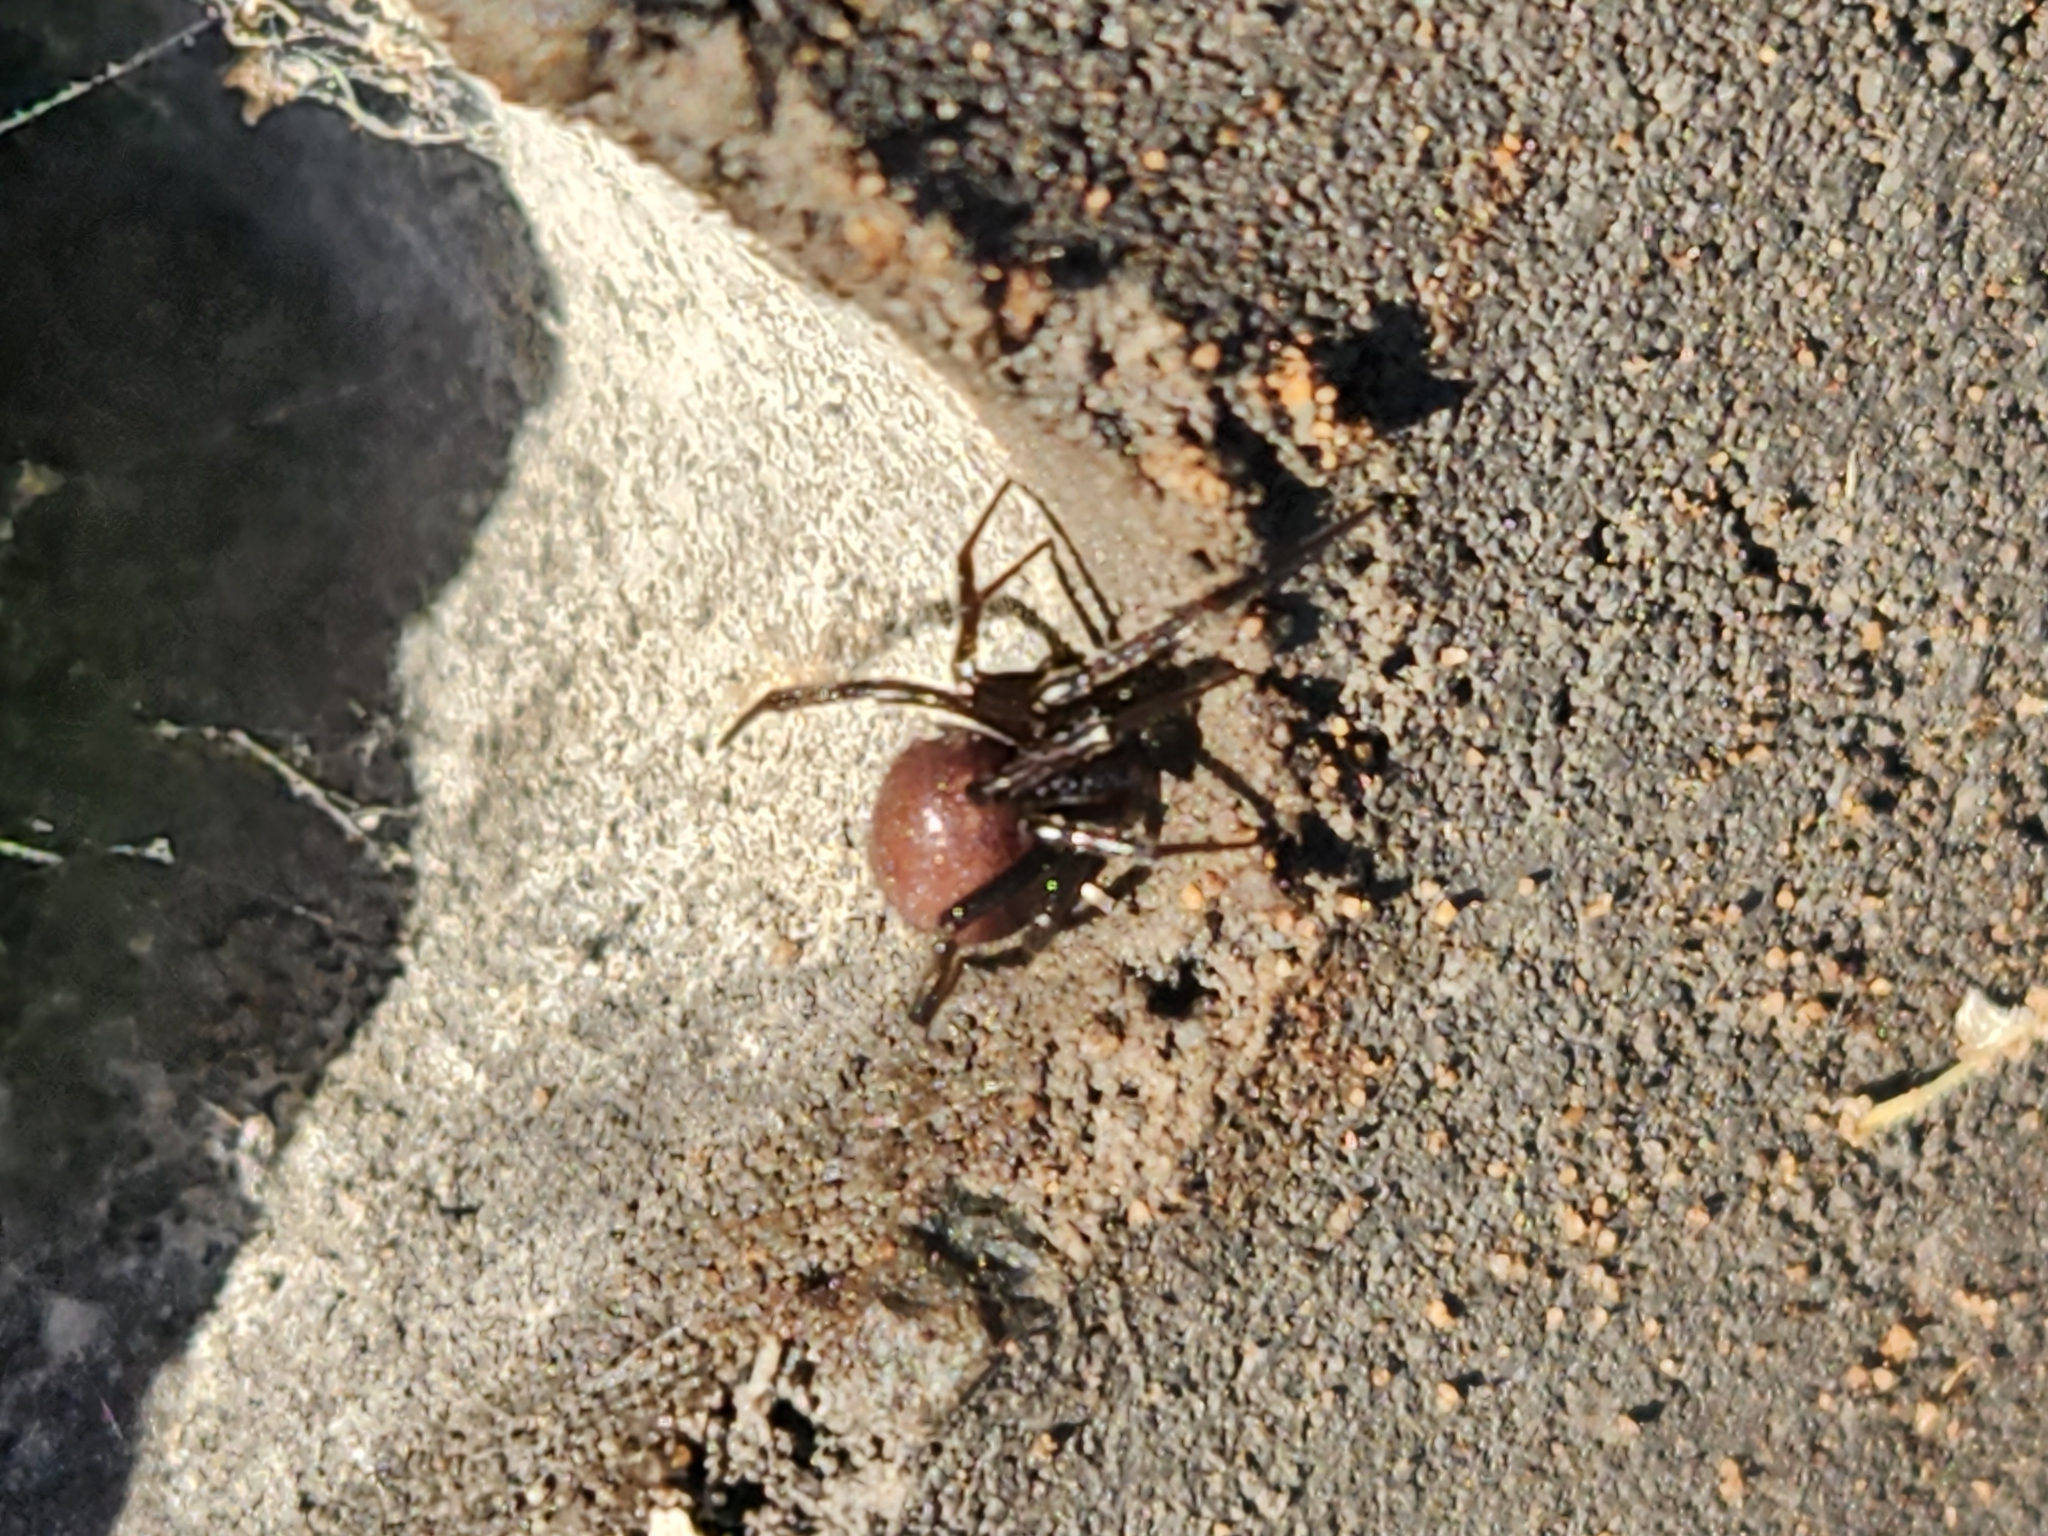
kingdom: Animalia
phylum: Arthropoda
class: Arachnida
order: Araneae
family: Theridiidae
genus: Steatoda
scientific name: Steatoda grossa
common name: False black widow
